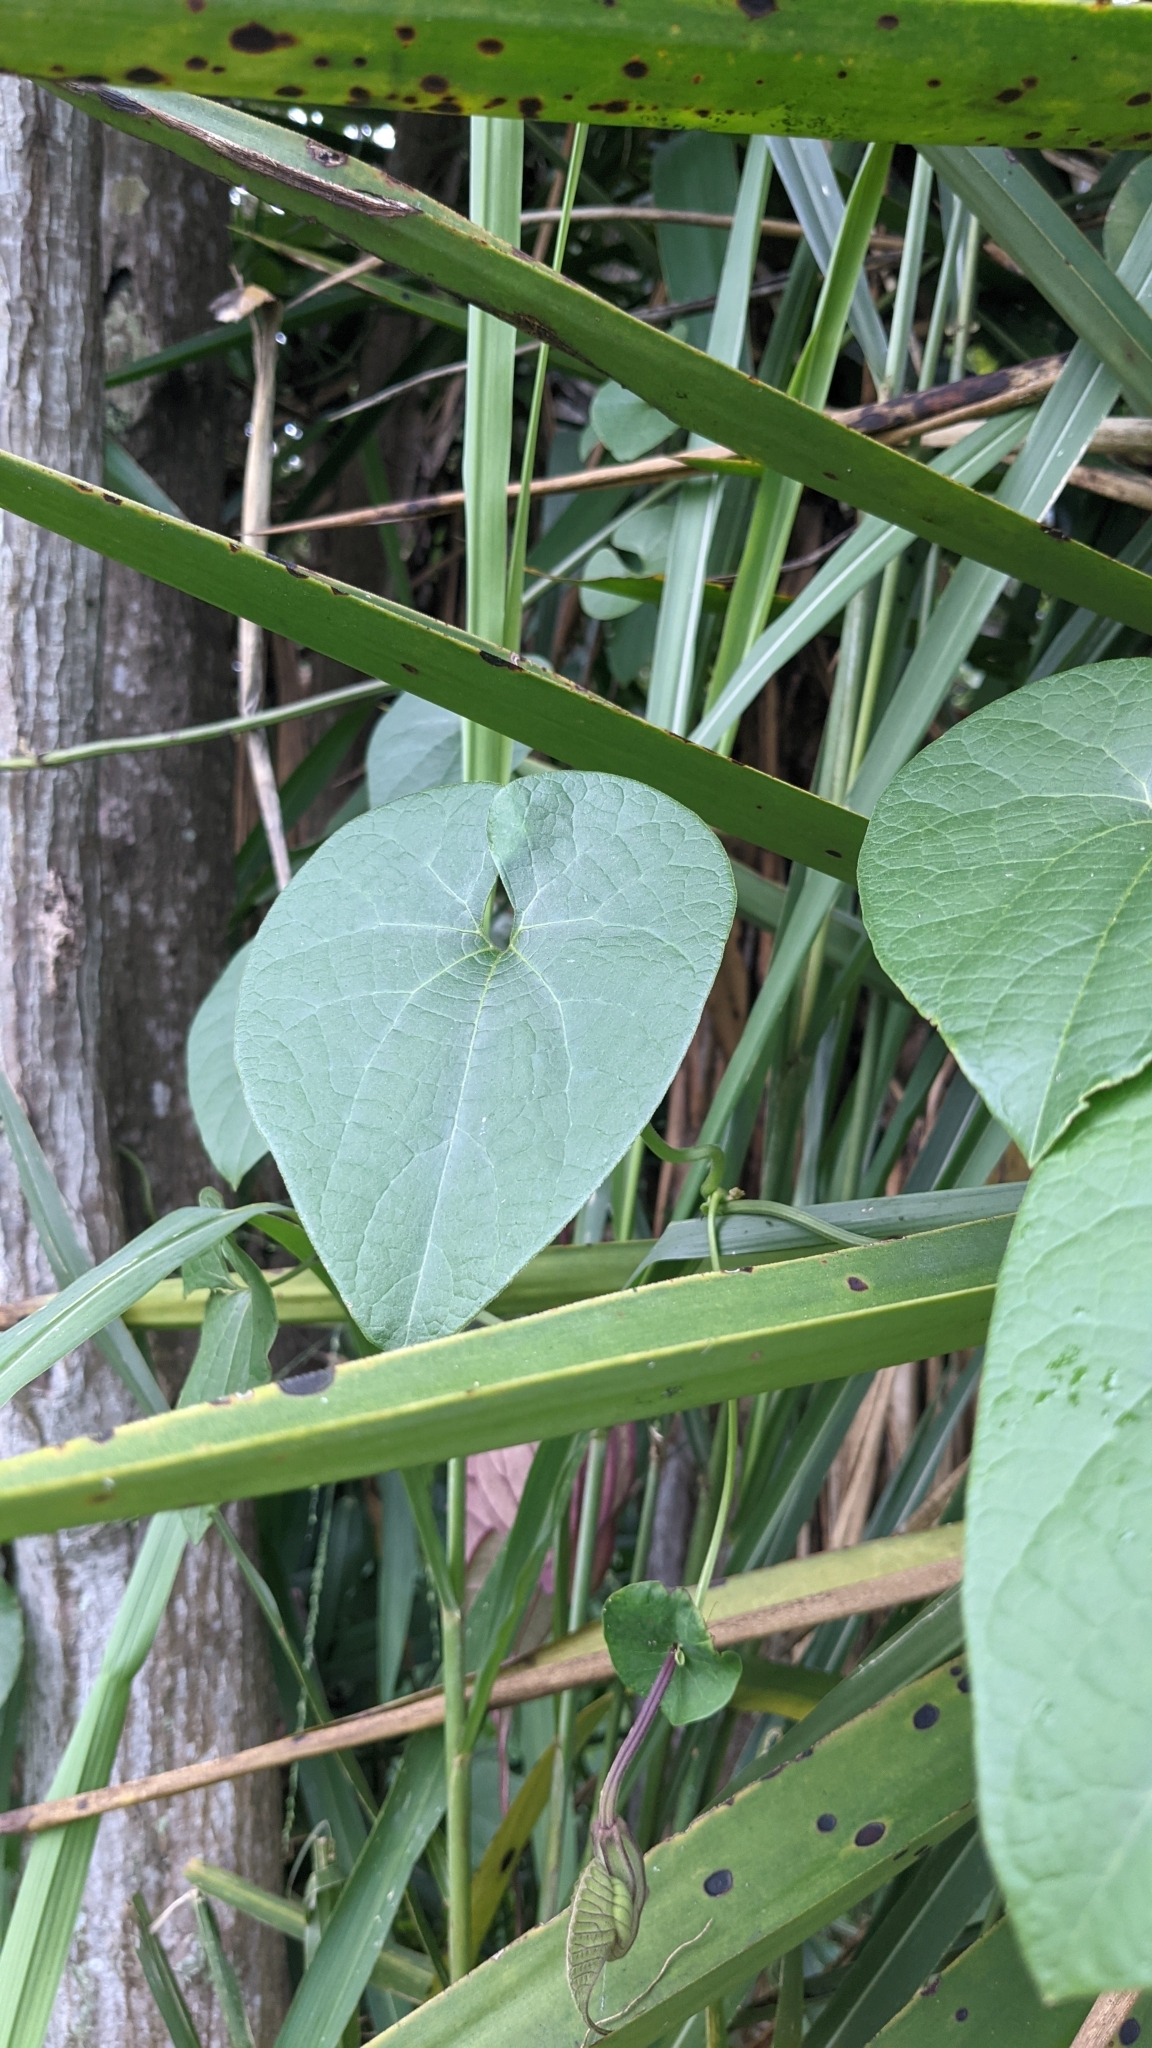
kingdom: Plantae
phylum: Tracheophyta
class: Magnoliopsida
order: Piperales
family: Aristolochiaceae
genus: Aristolochia
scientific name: Aristolochia grandiflora
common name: Pelicanflower
